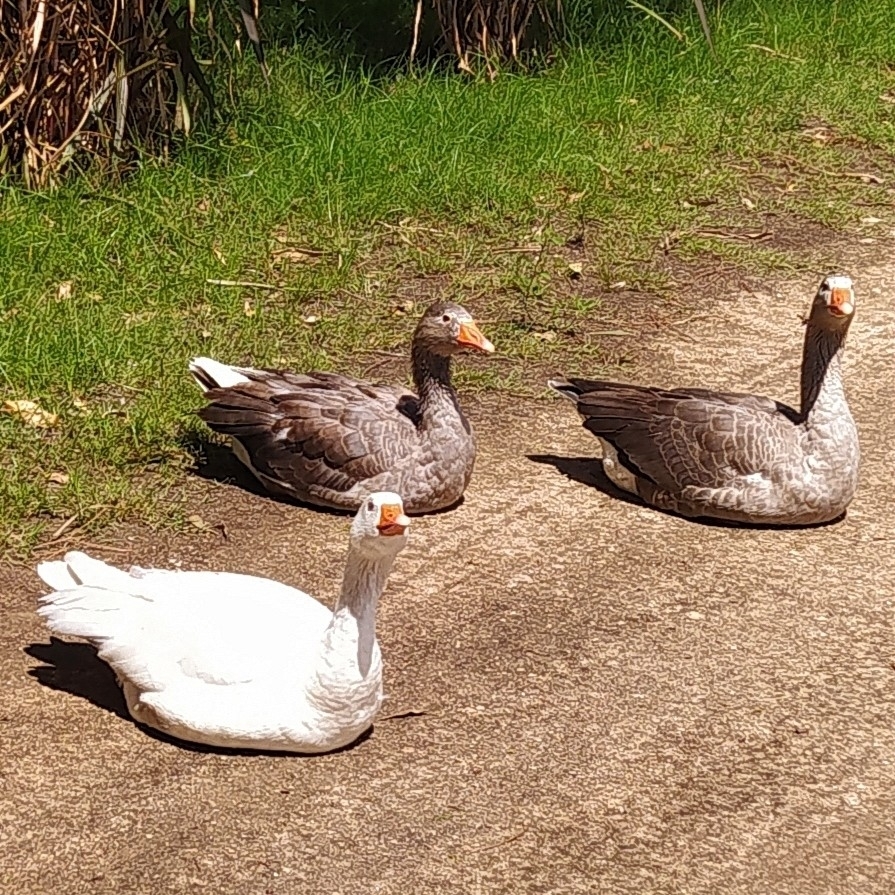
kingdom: Animalia
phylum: Chordata
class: Aves
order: Anseriformes
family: Anatidae
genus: Anser
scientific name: Anser anser
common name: Greylag goose
